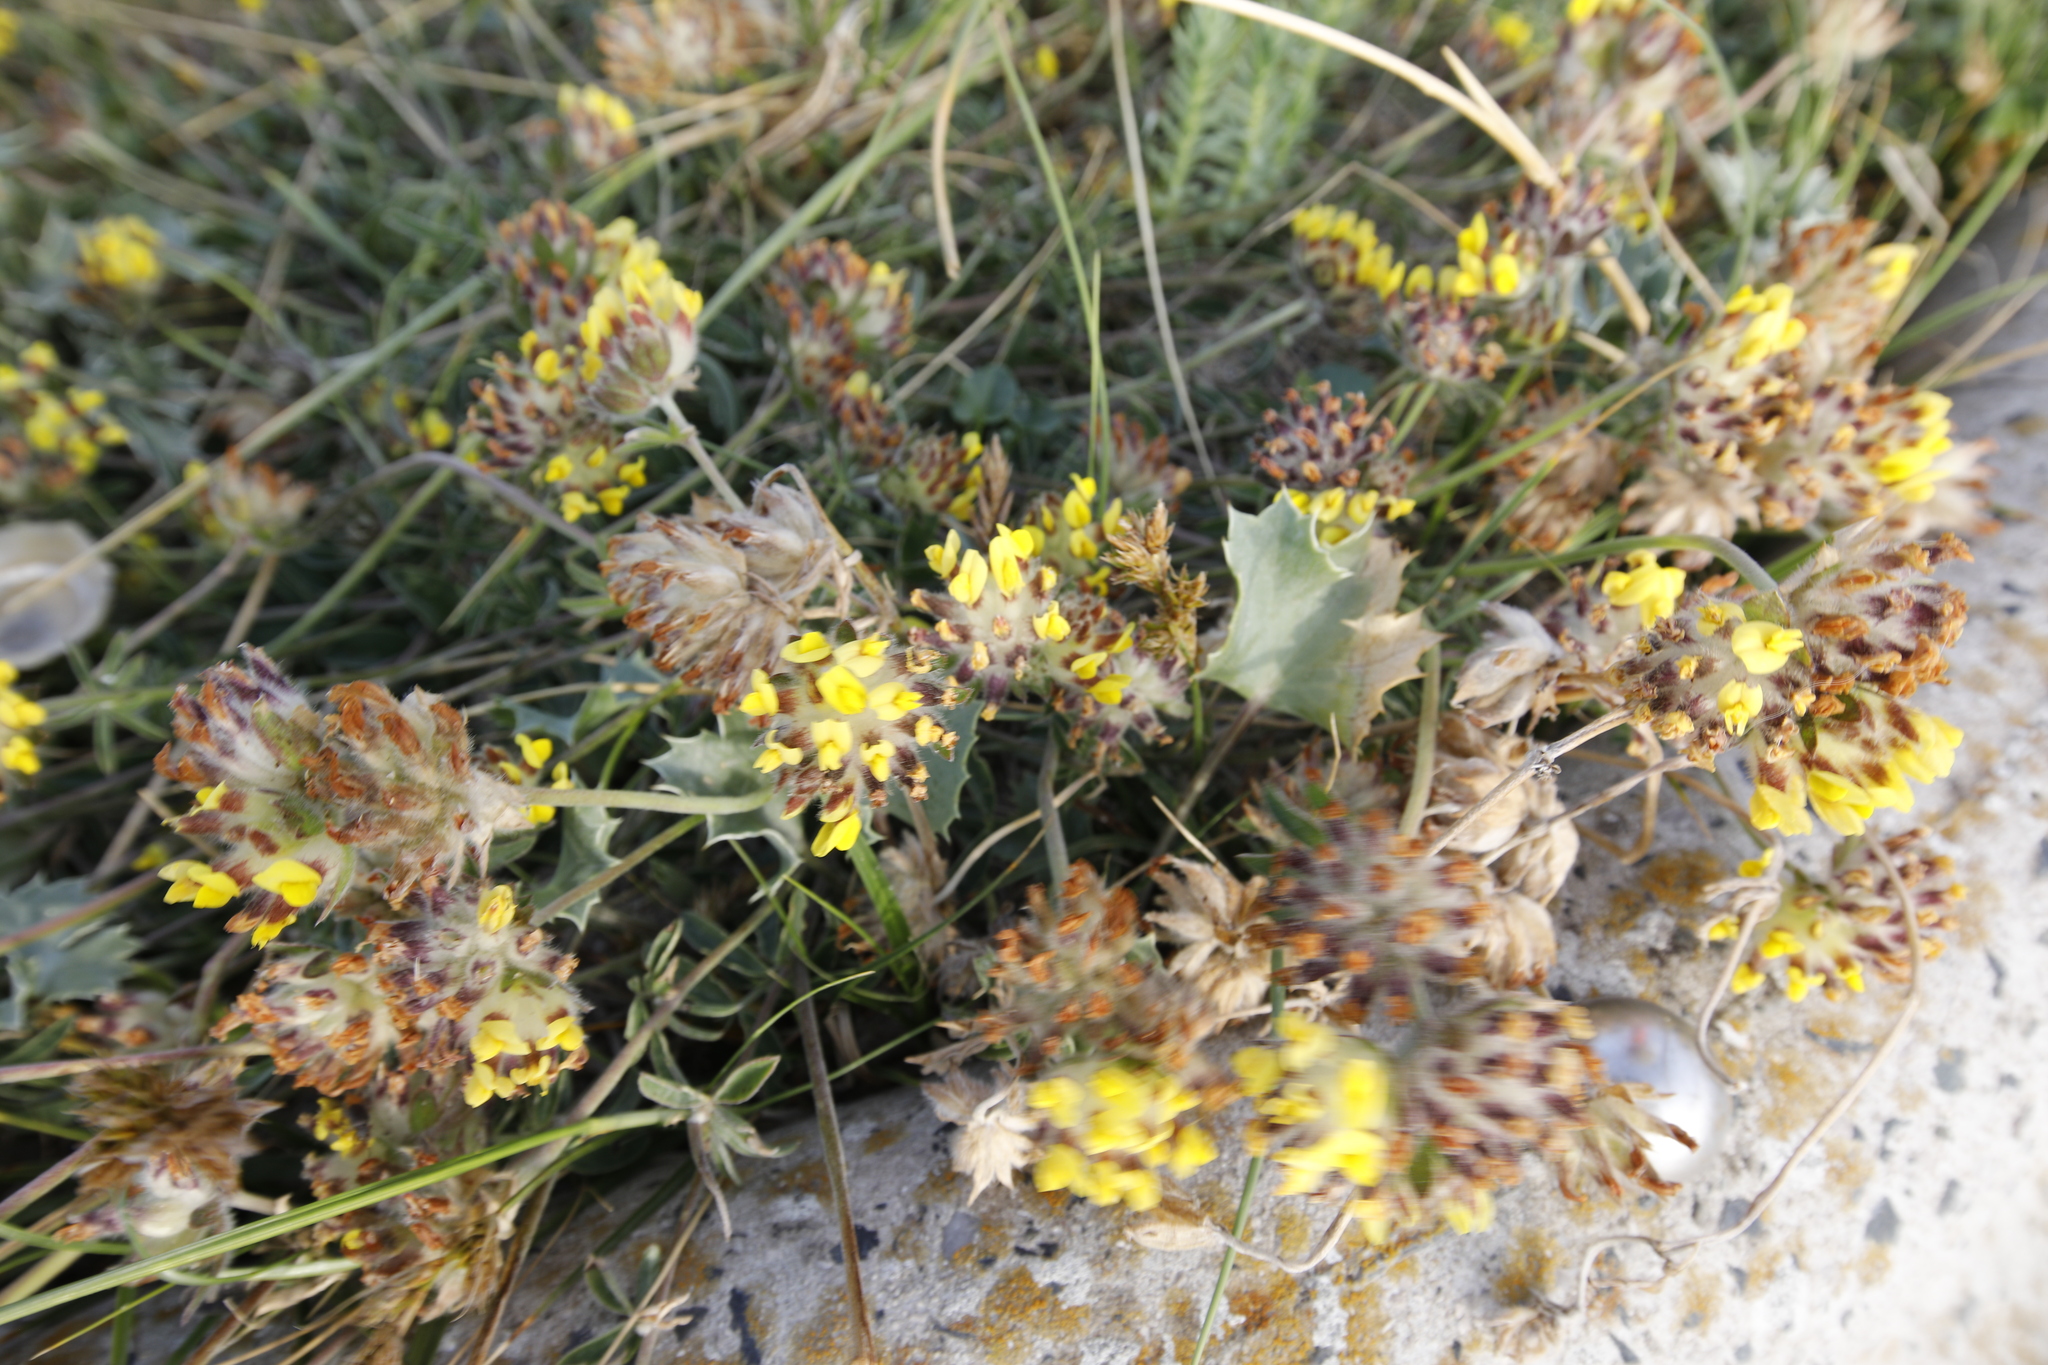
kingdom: Plantae
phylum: Tracheophyta
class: Magnoliopsida
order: Fabales
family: Fabaceae
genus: Anthyllis
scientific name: Anthyllis vulneraria
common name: Kidney vetch
